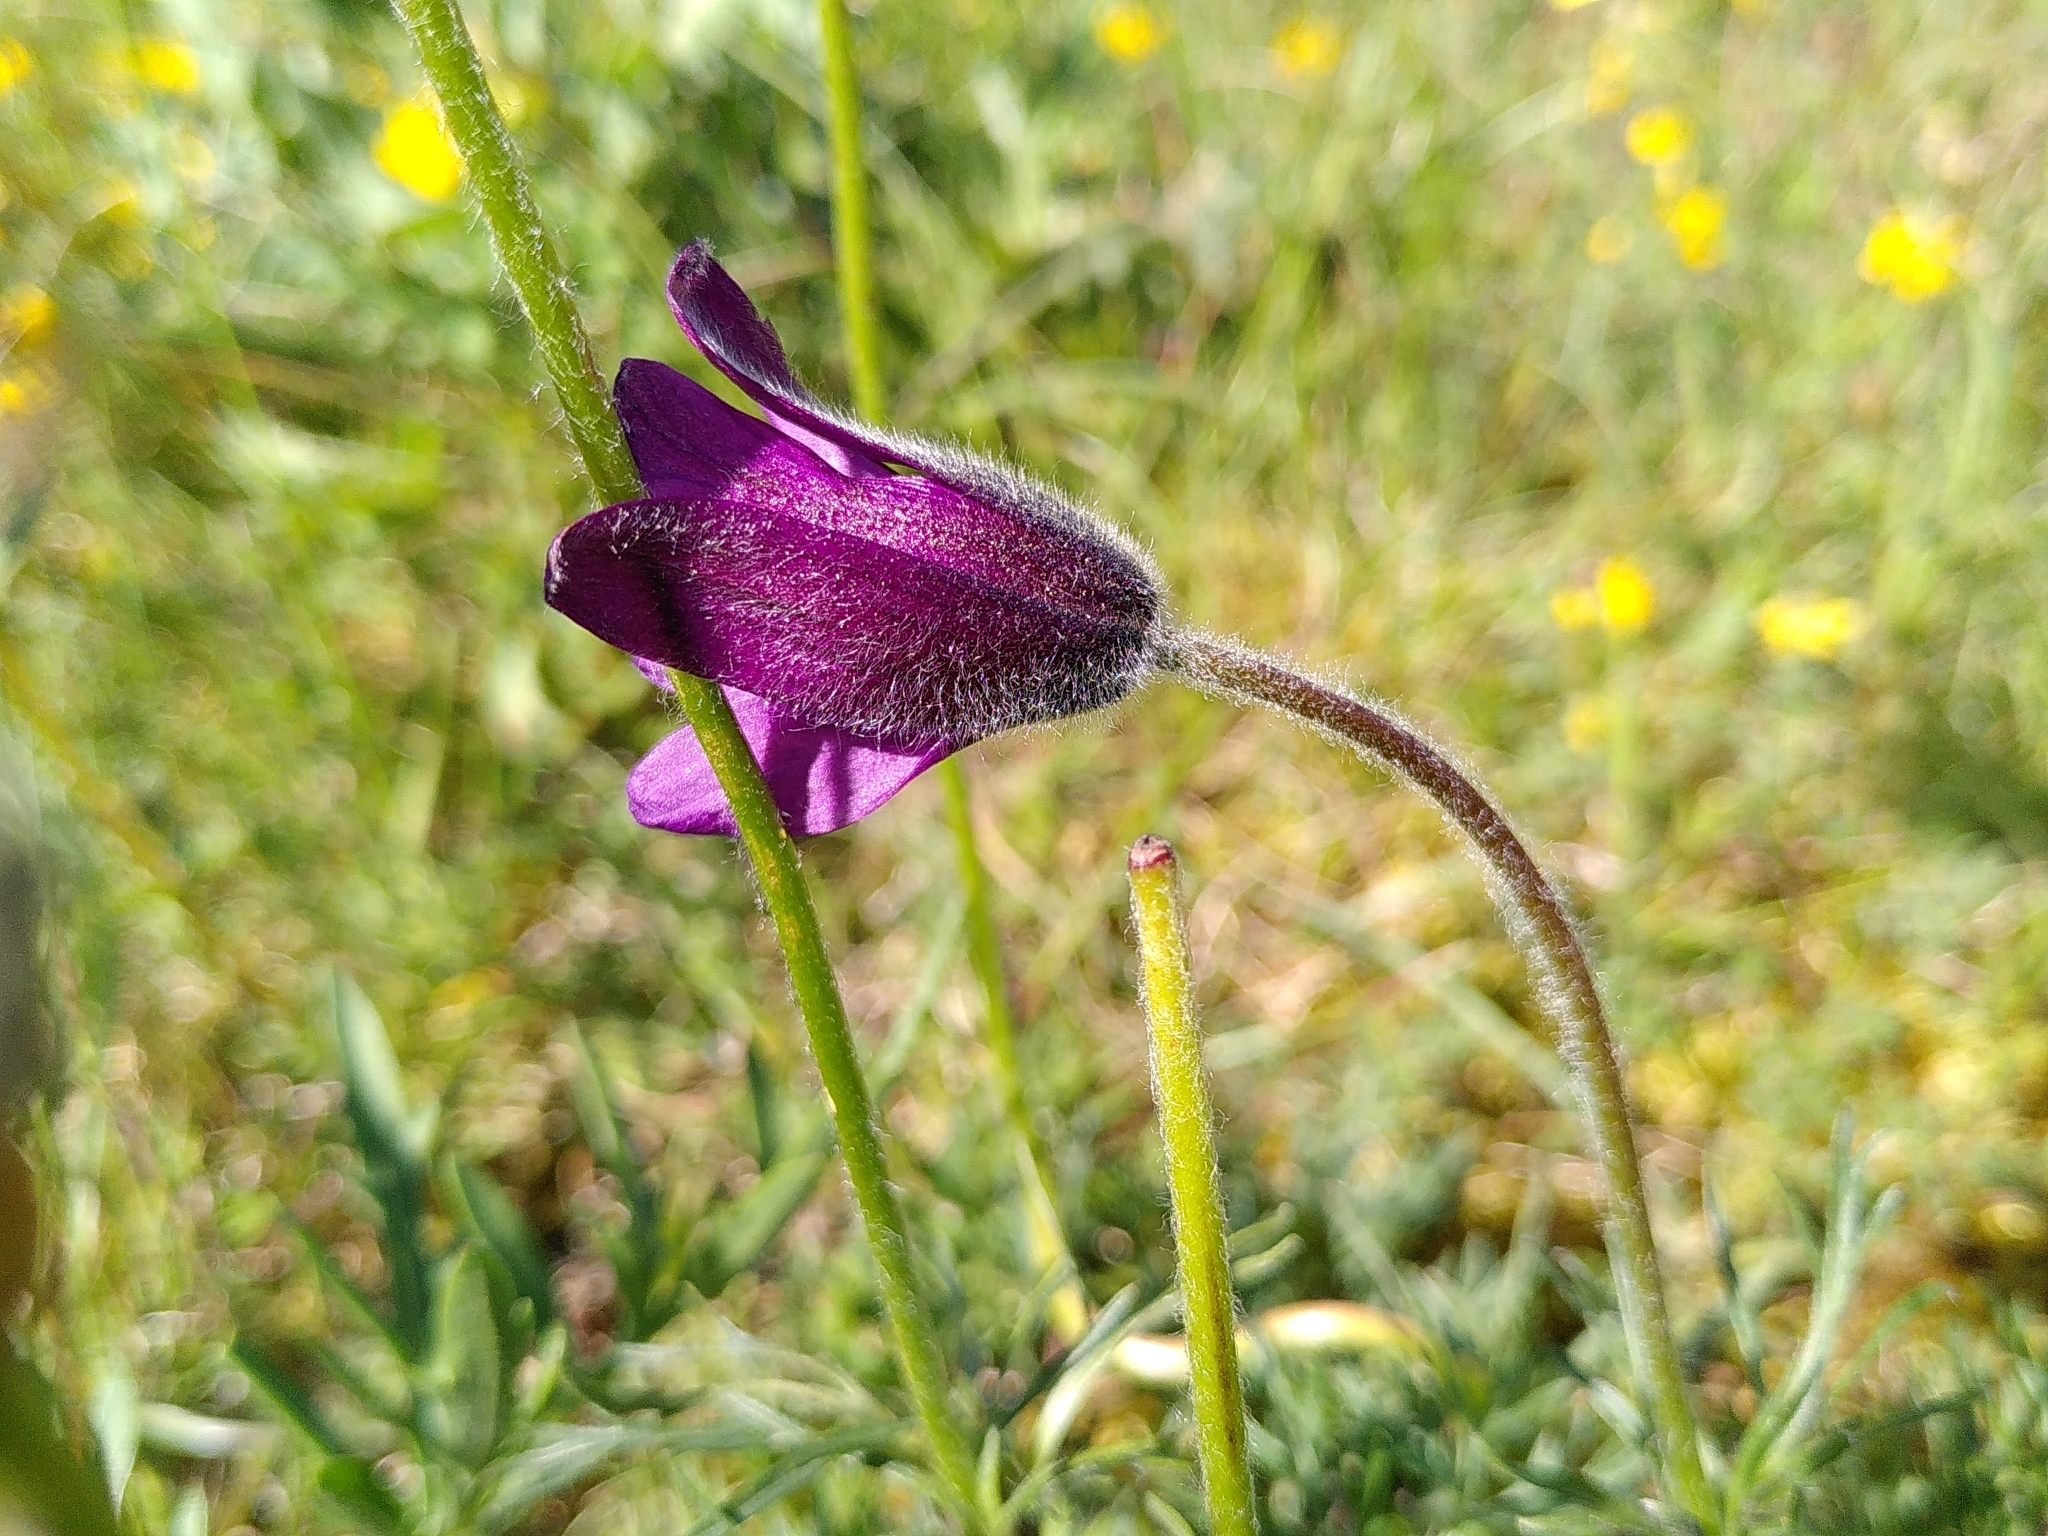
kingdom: Plantae
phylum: Tracheophyta
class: Magnoliopsida
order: Ranunculales
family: Ranunculaceae
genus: Pulsatilla
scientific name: Pulsatilla vulgaris
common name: Pasqueflower
